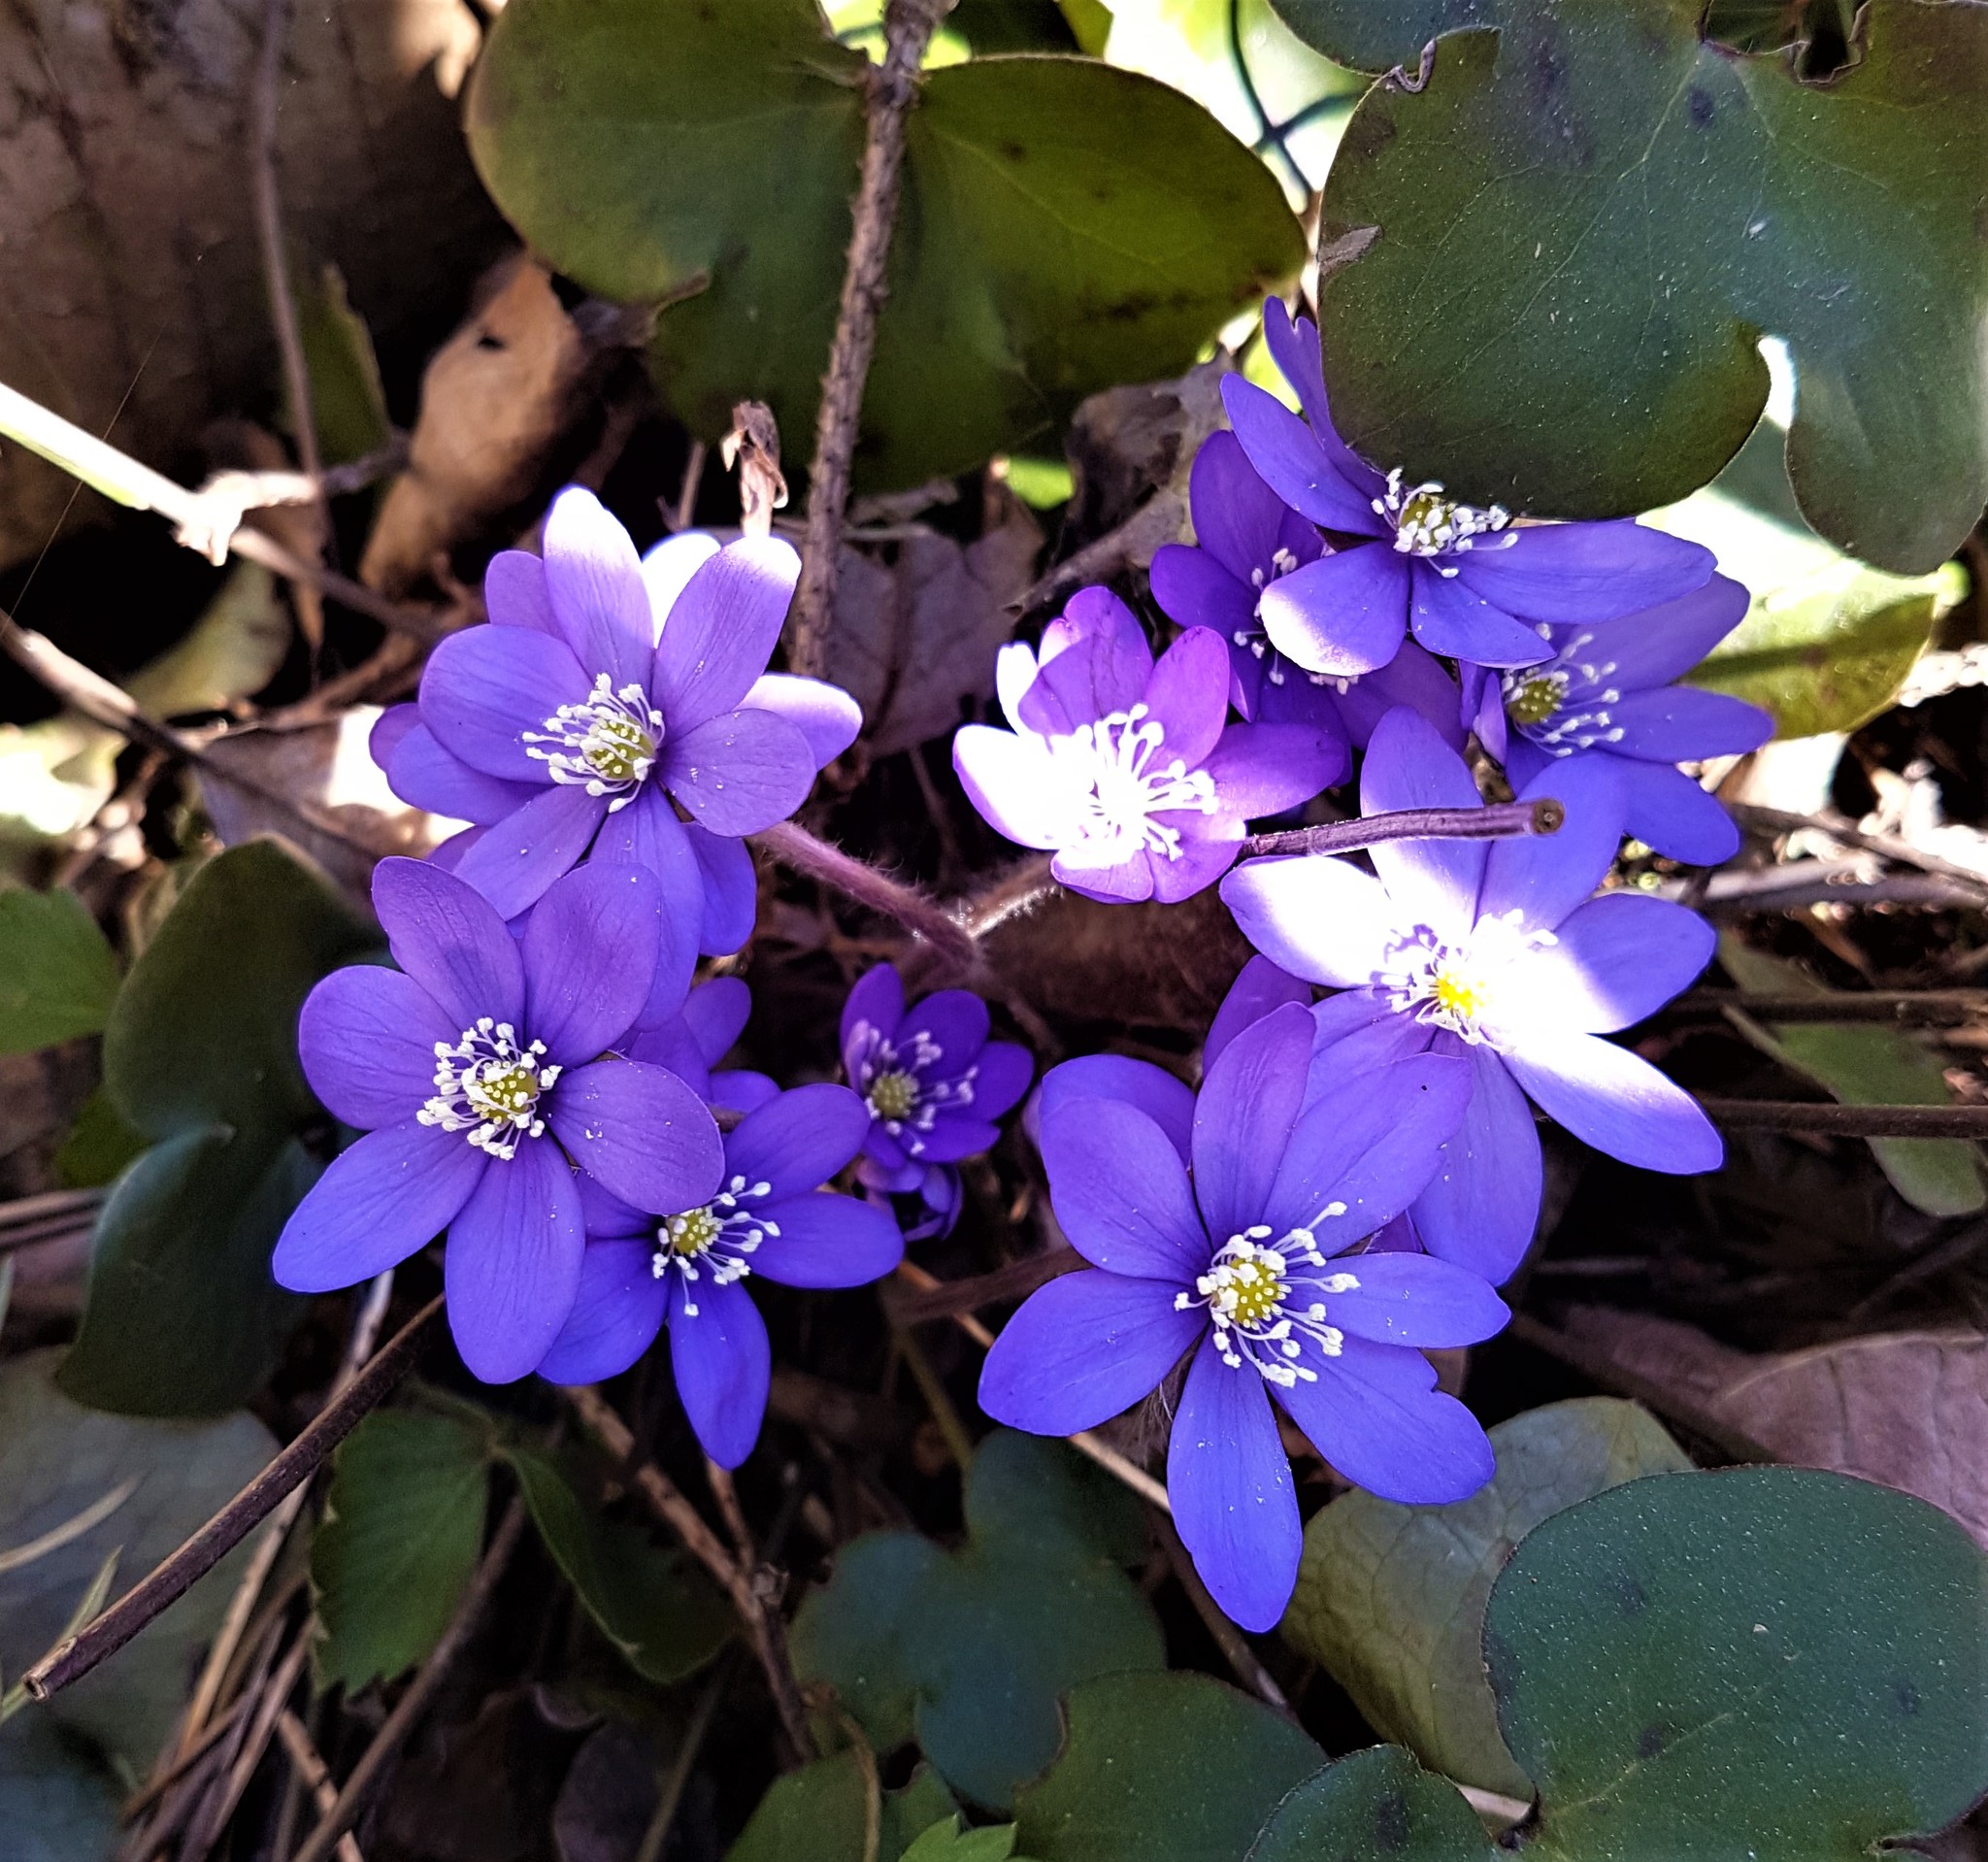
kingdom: Plantae
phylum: Tracheophyta
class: Magnoliopsida
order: Ranunculales
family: Ranunculaceae
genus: Hepatica
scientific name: Hepatica nobilis
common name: Liverleaf
